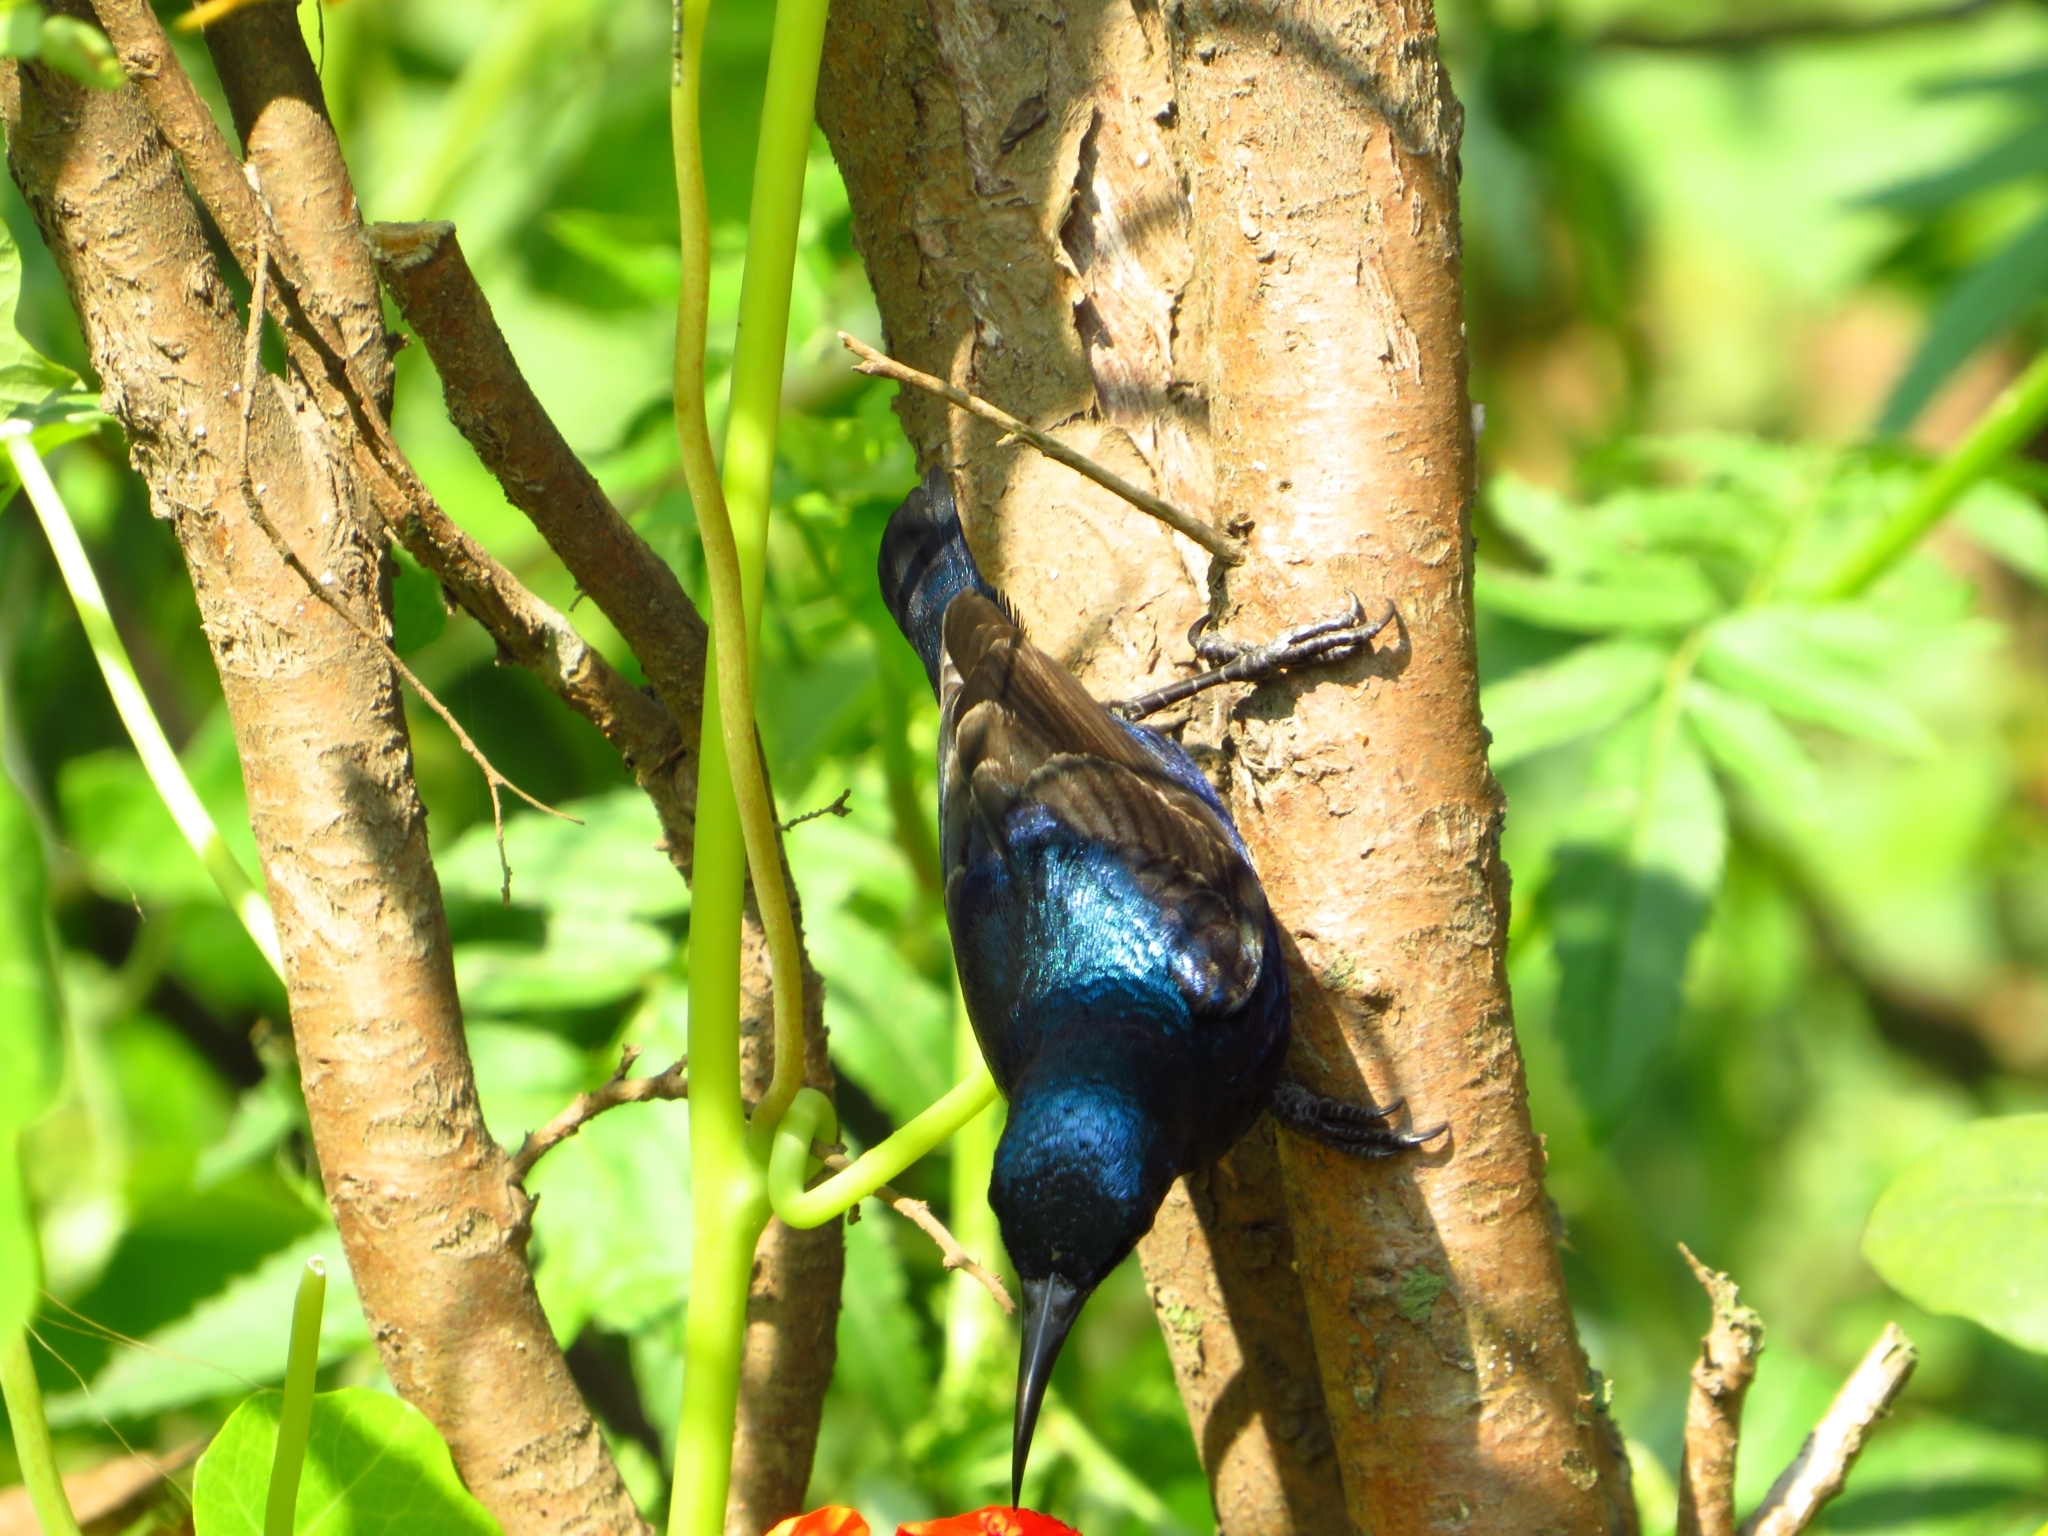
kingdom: Animalia
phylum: Chordata
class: Aves
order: Passeriformes
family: Nectariniidae
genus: Cinnyris
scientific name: Cinnyris asiaticus
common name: Purple sunbird
